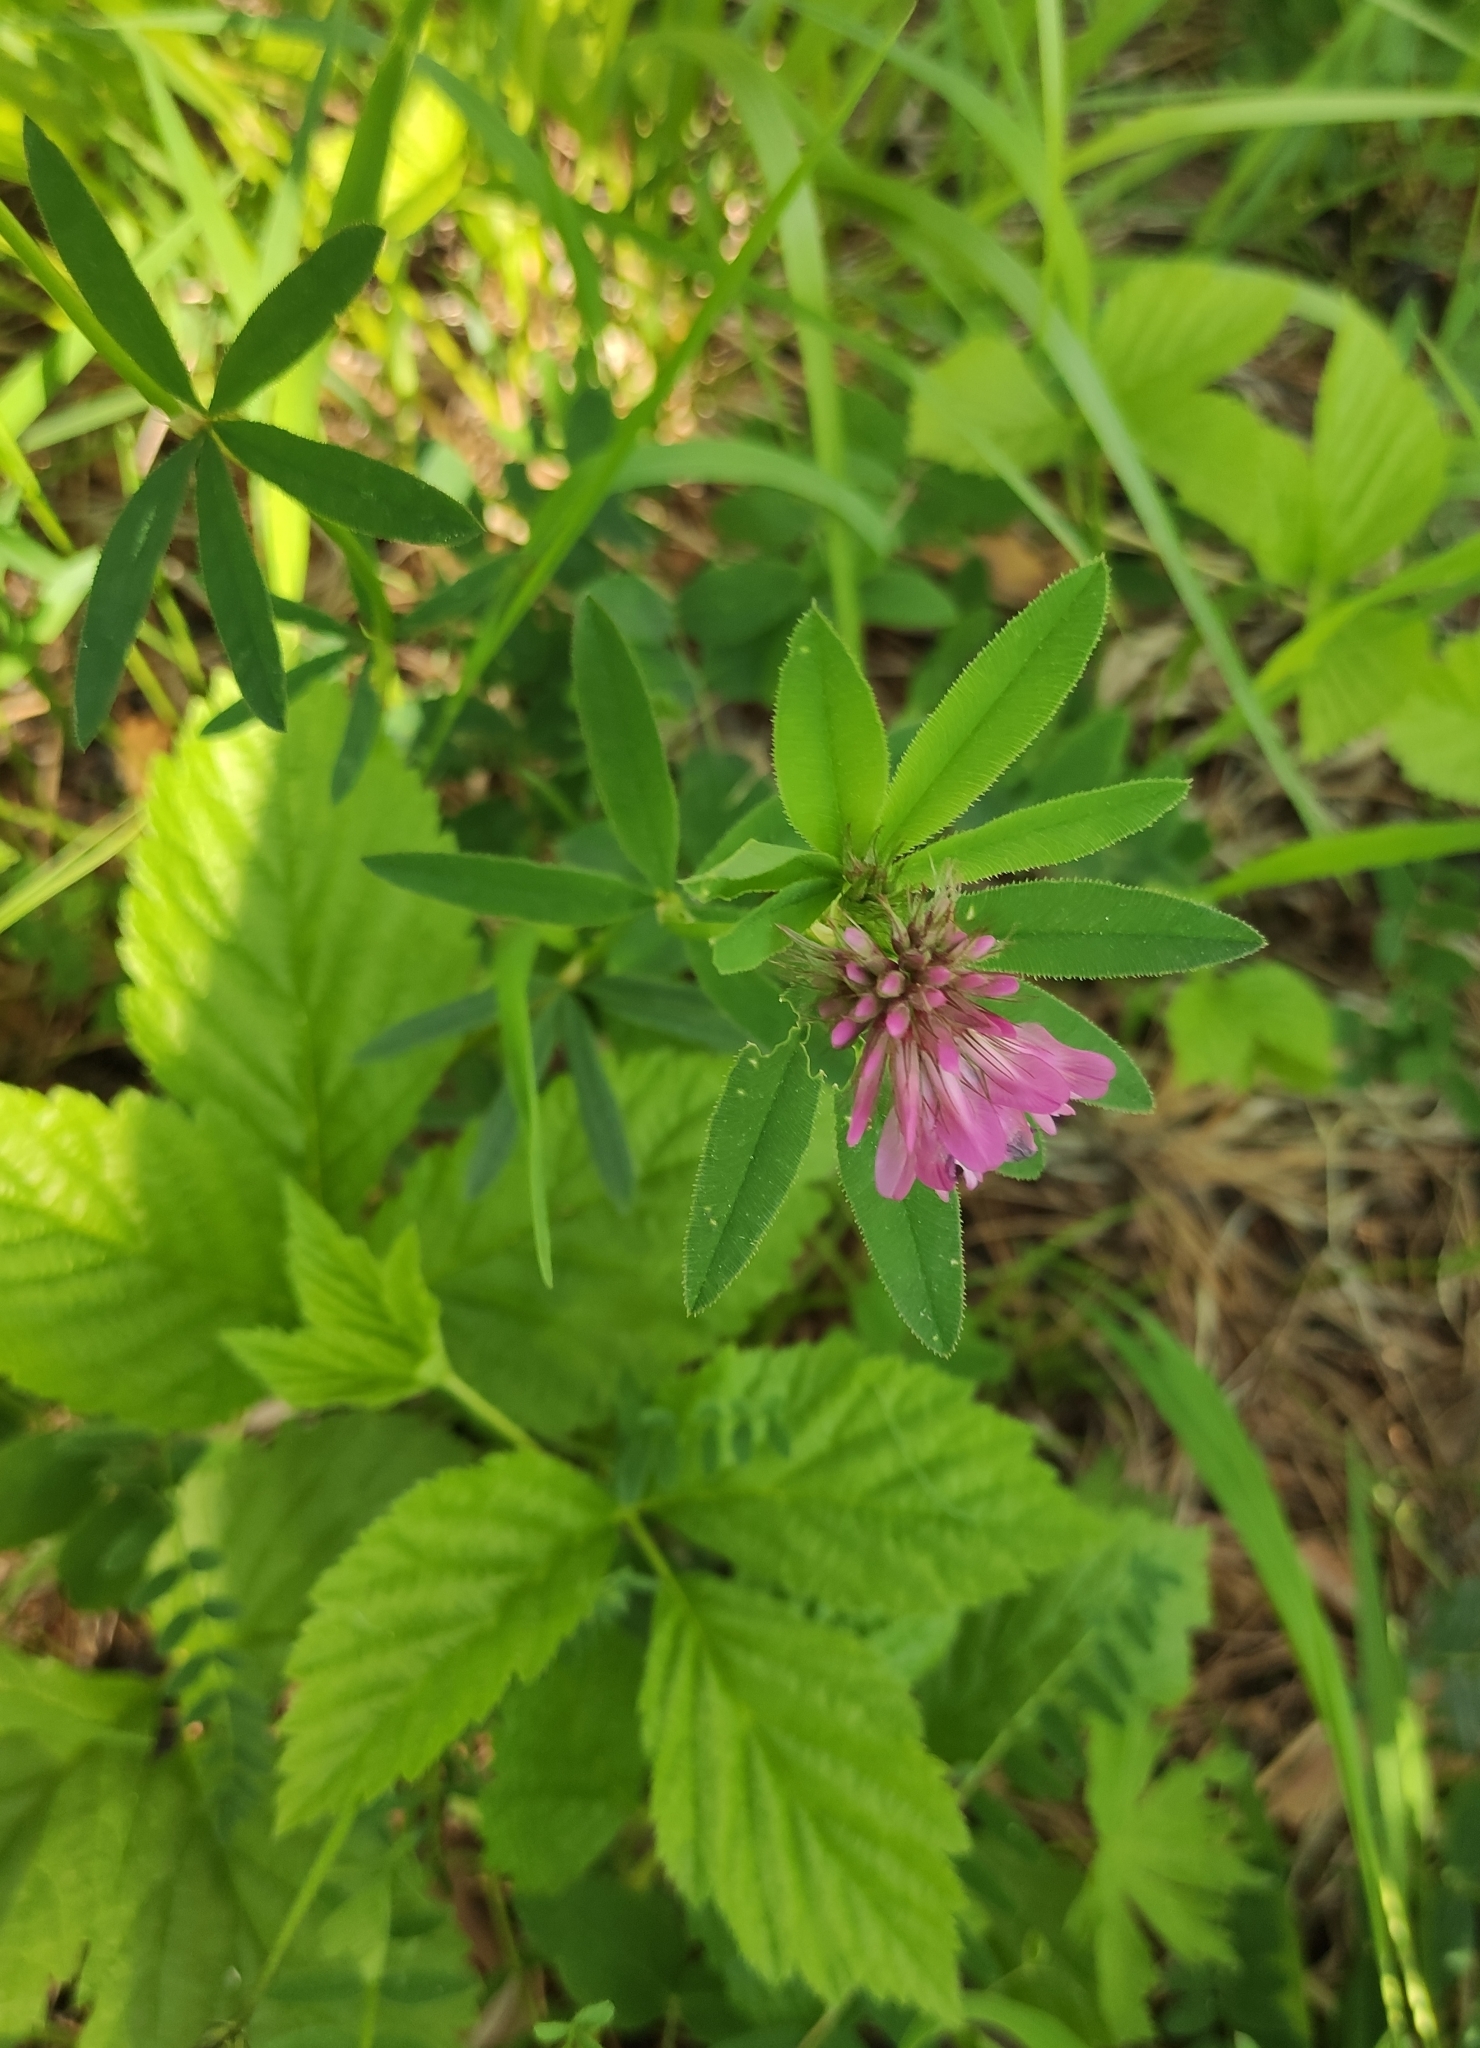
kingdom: Plantae
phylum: Tracheophyta
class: Magnoliopsida
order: Fabales
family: Fabaceae
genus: Trifolium
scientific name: Trifolium lupinaster
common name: Lupine clover
